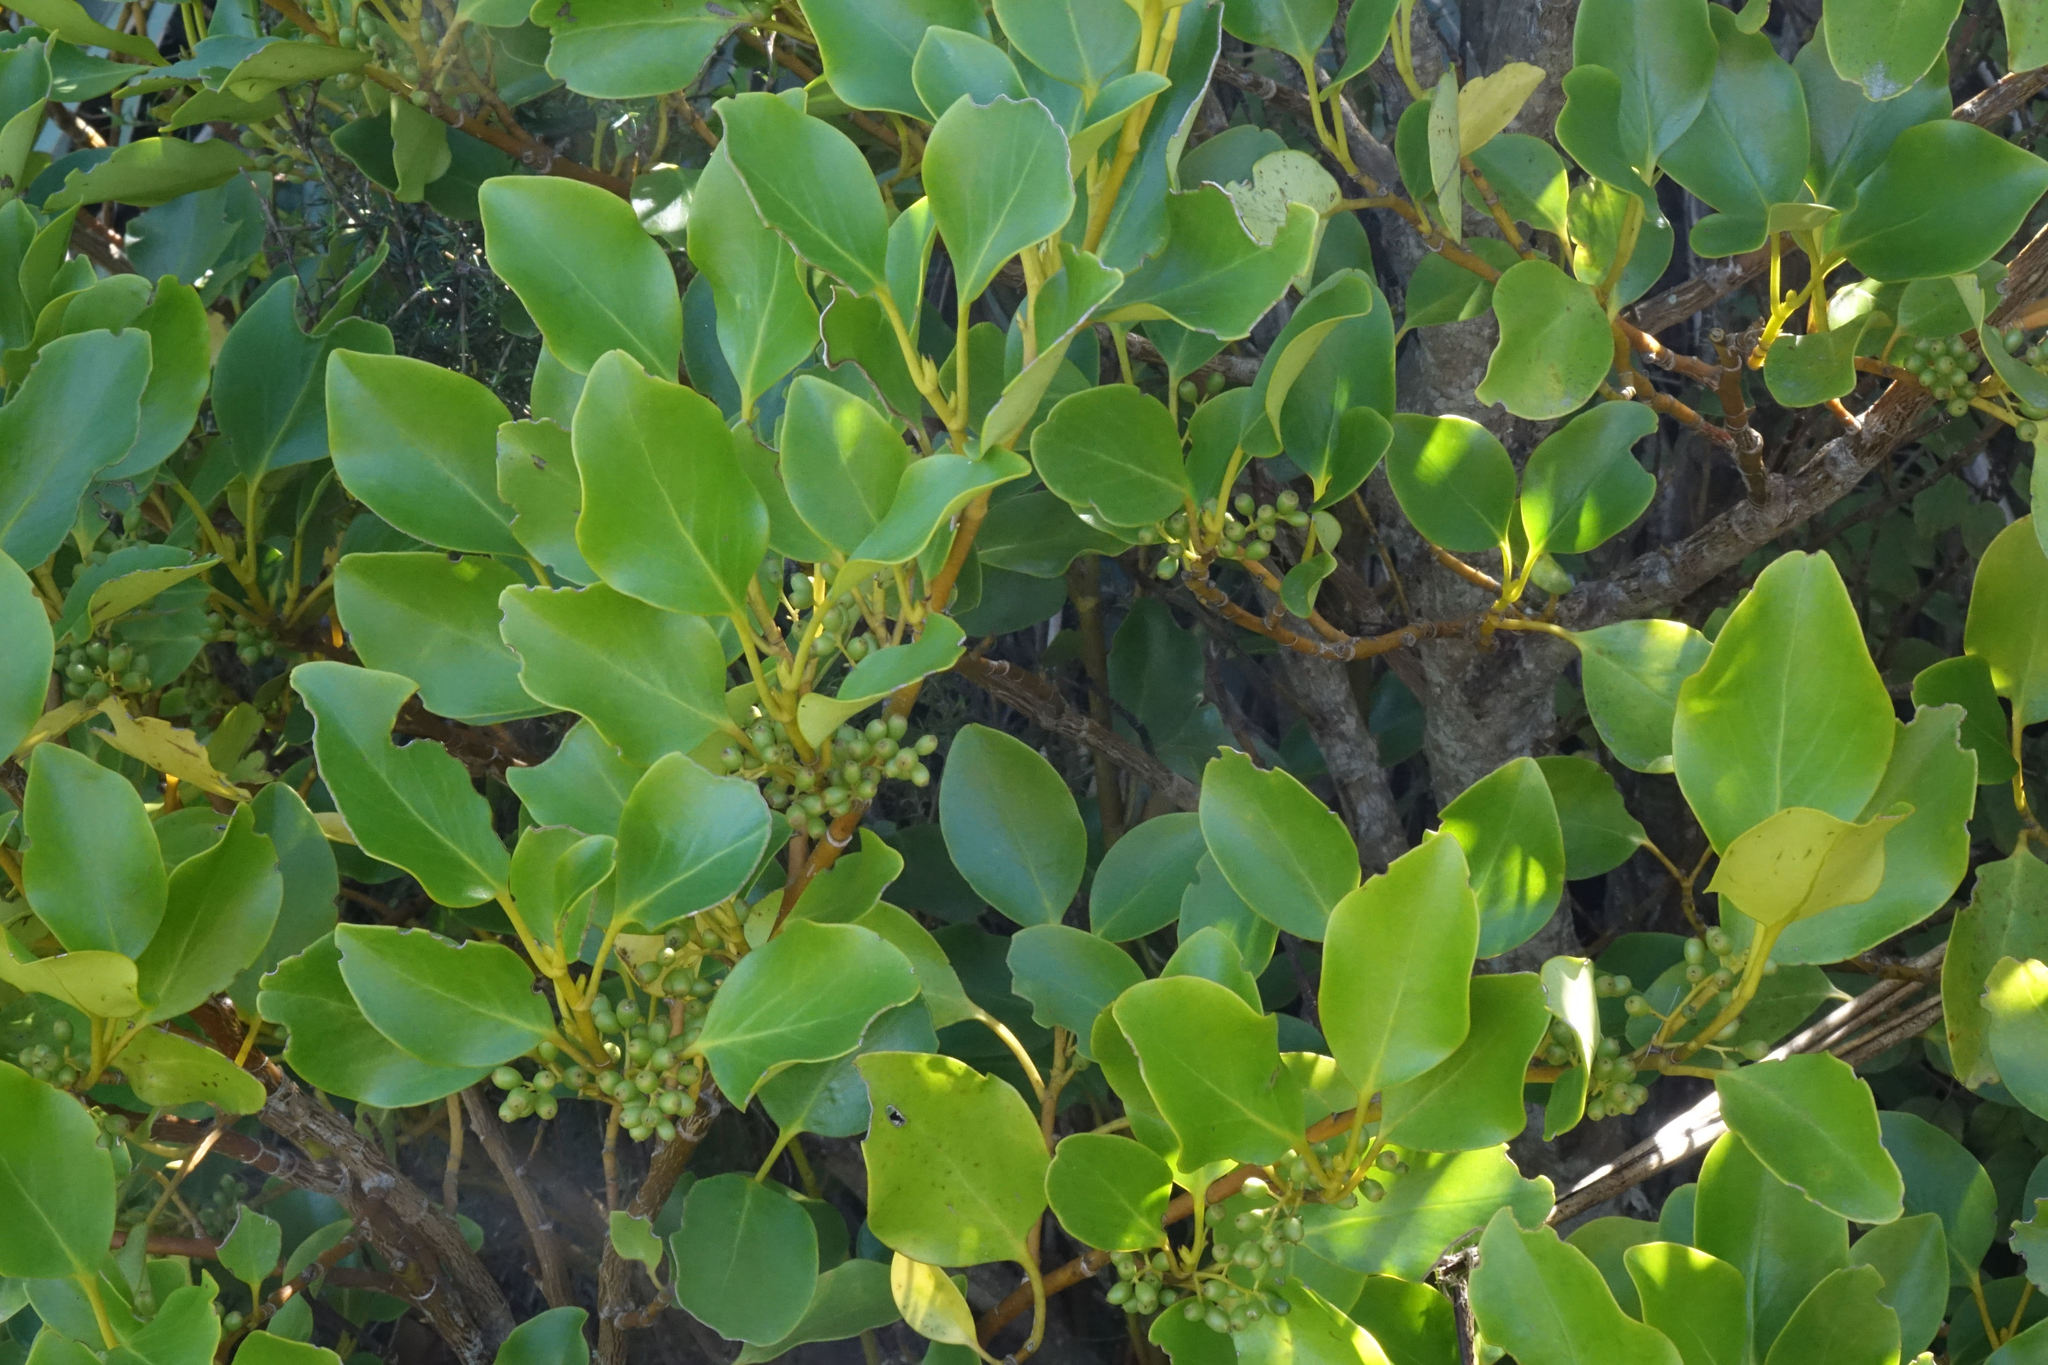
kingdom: Plantae
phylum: Tracheophyta
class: Magnoliopsida
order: Apiales
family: Griseliniaceae
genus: Griselinia
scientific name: Griselinia littoralis
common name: New zealand broadleaf
